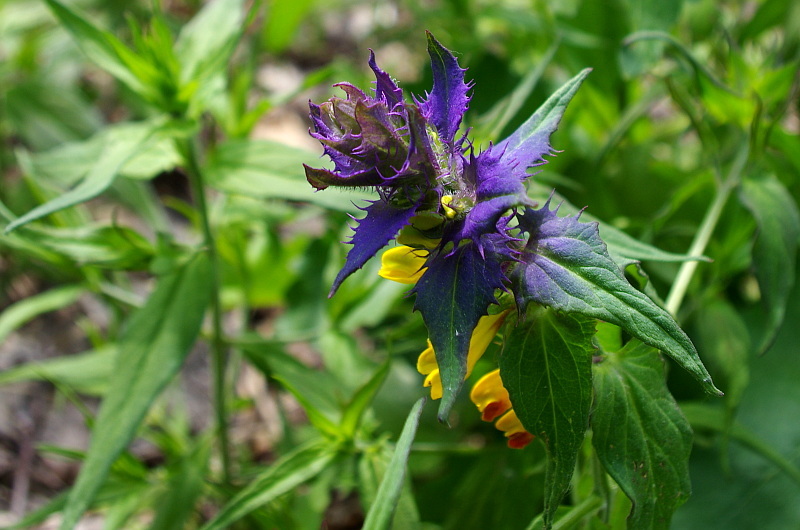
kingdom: Plantae
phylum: Tracheophyta
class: Magnoliopsida
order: Lamiales
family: Orobanchaceae
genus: Melampyrum
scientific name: Melampyrum nemorosum
